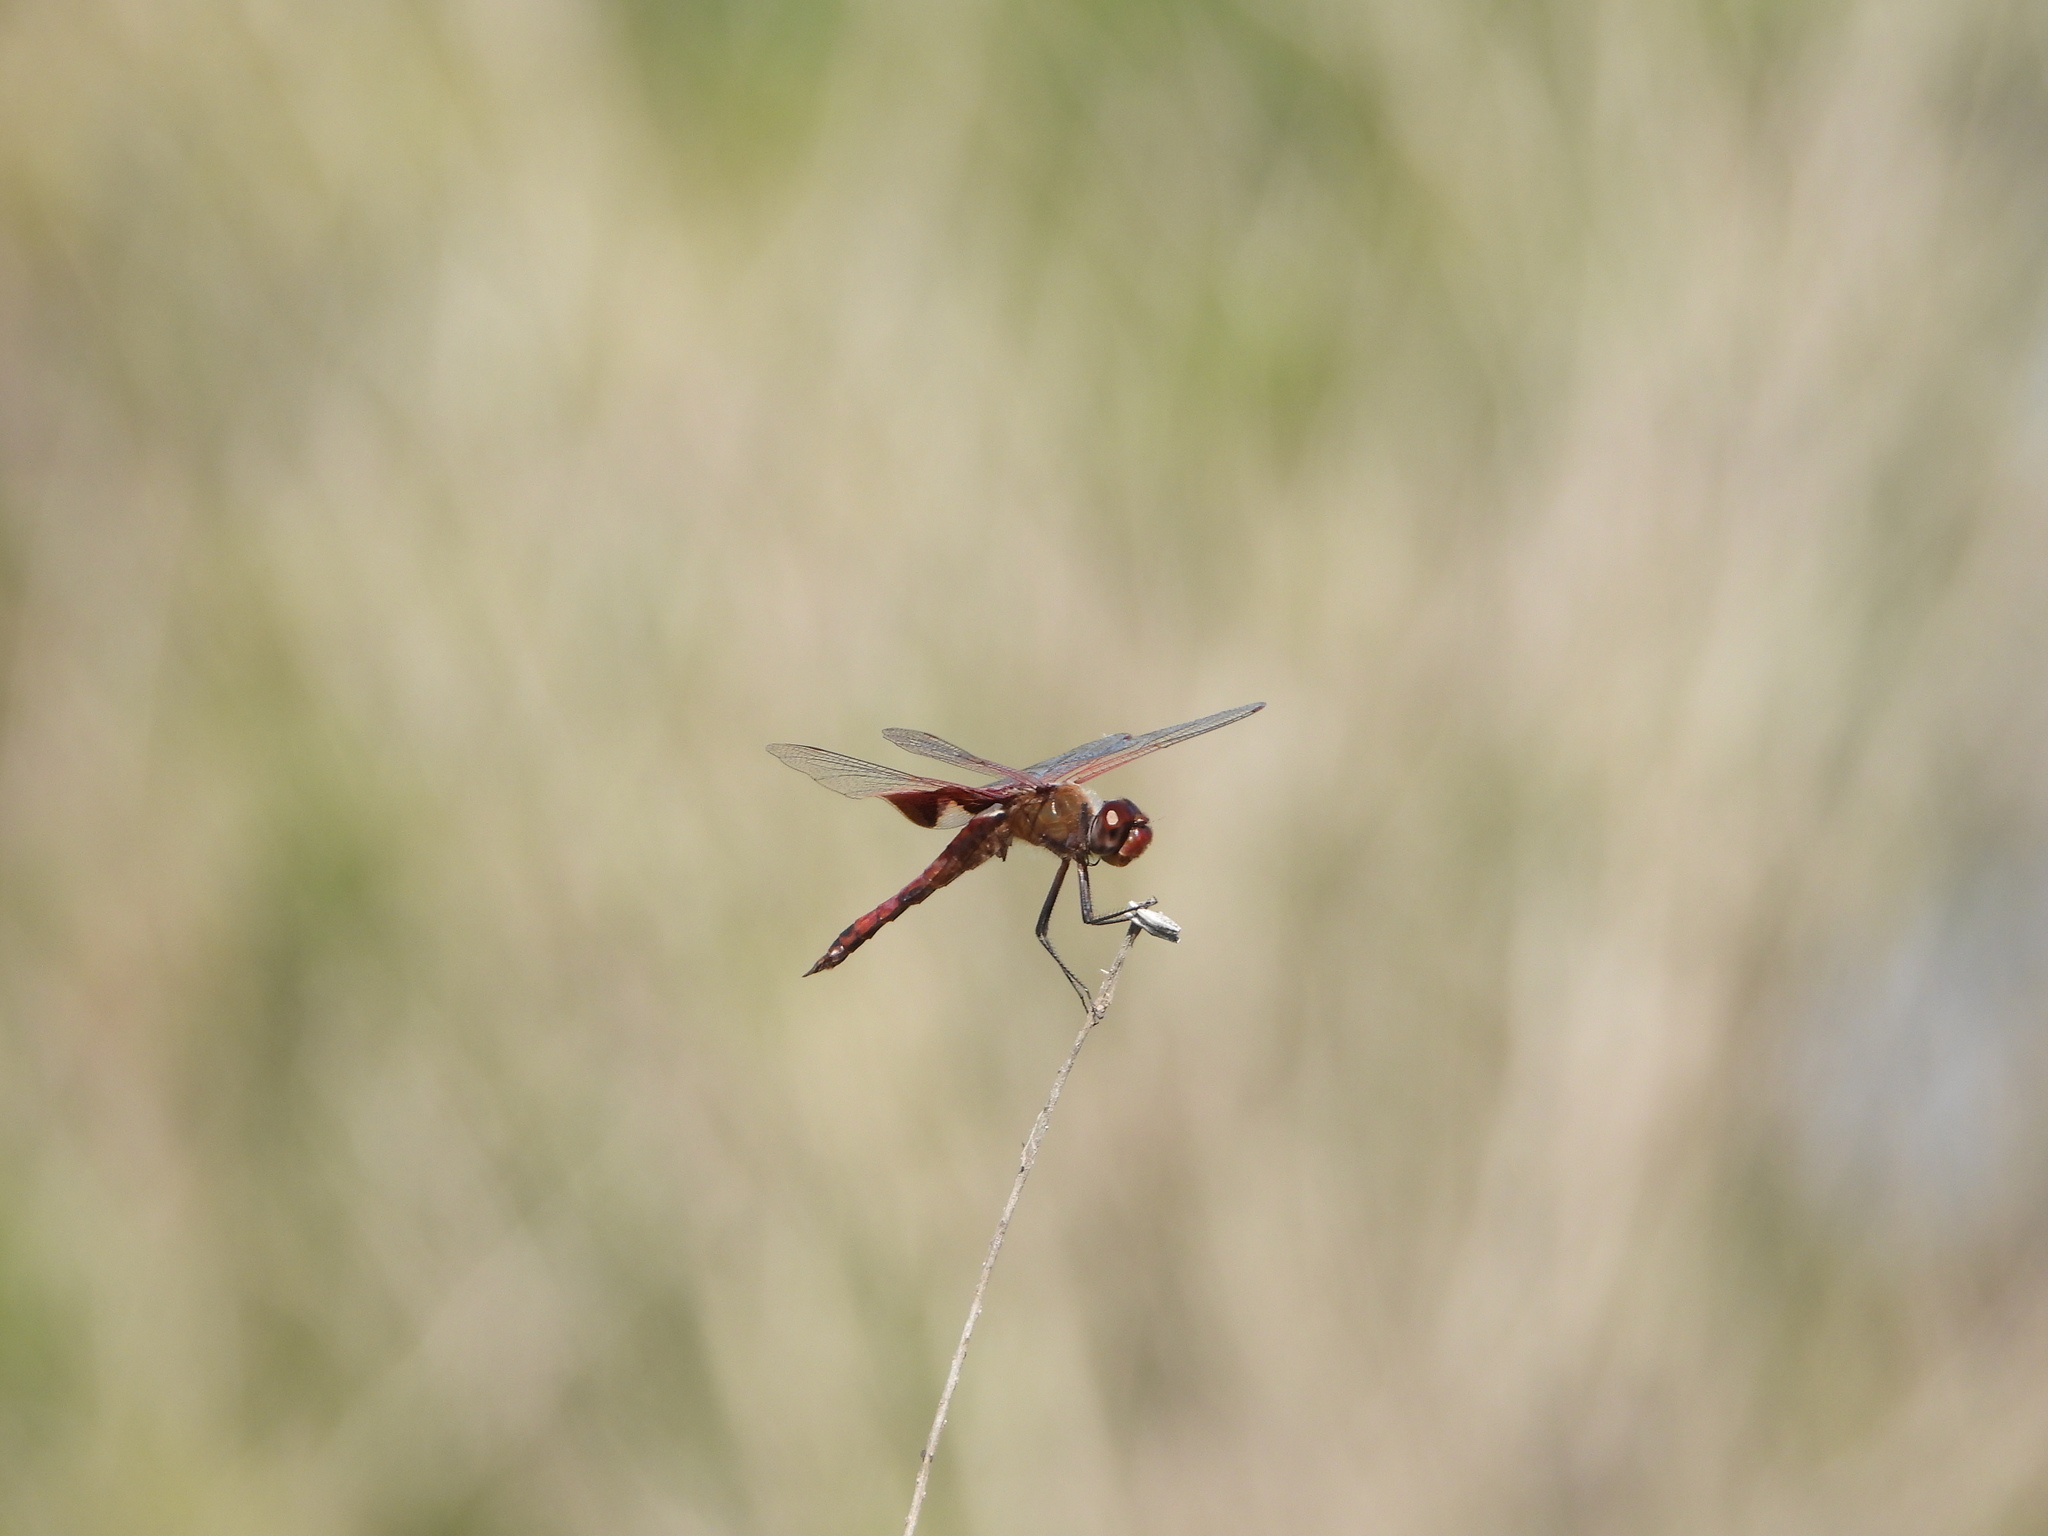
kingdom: Animalia
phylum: Arthropoda
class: Insecta
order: Odonata
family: Libellulidae
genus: Tramea
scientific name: Tramea onusta
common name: Red saddlebags
